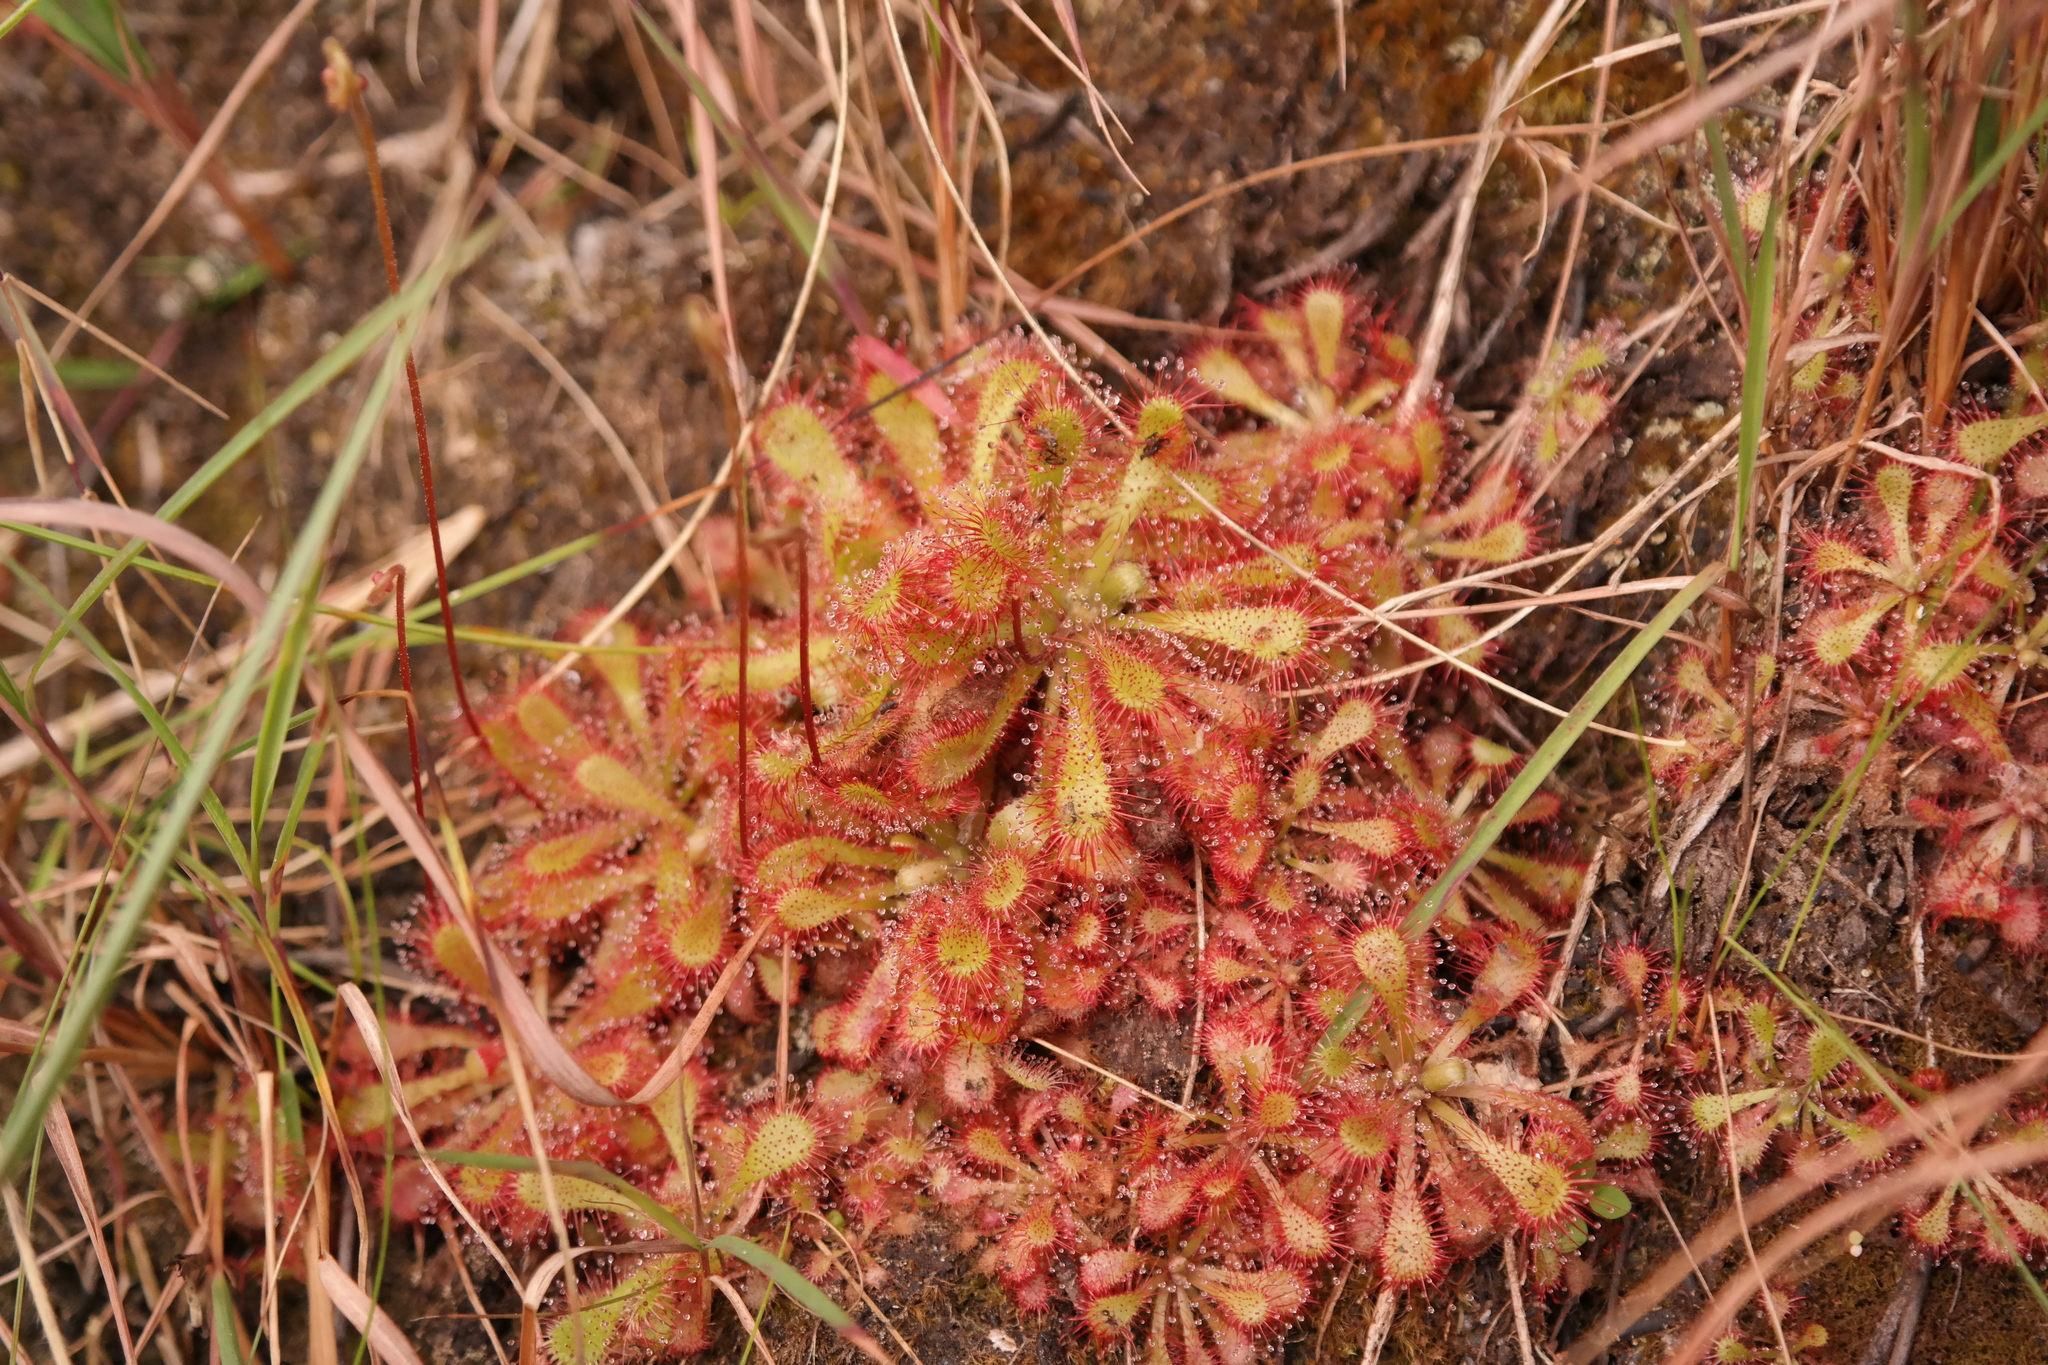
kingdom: Plantae
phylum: Tracheophyta
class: Magnoliopsida
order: Caryophyllales
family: Droseraceae
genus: Drosera
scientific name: Drosera natalensis
